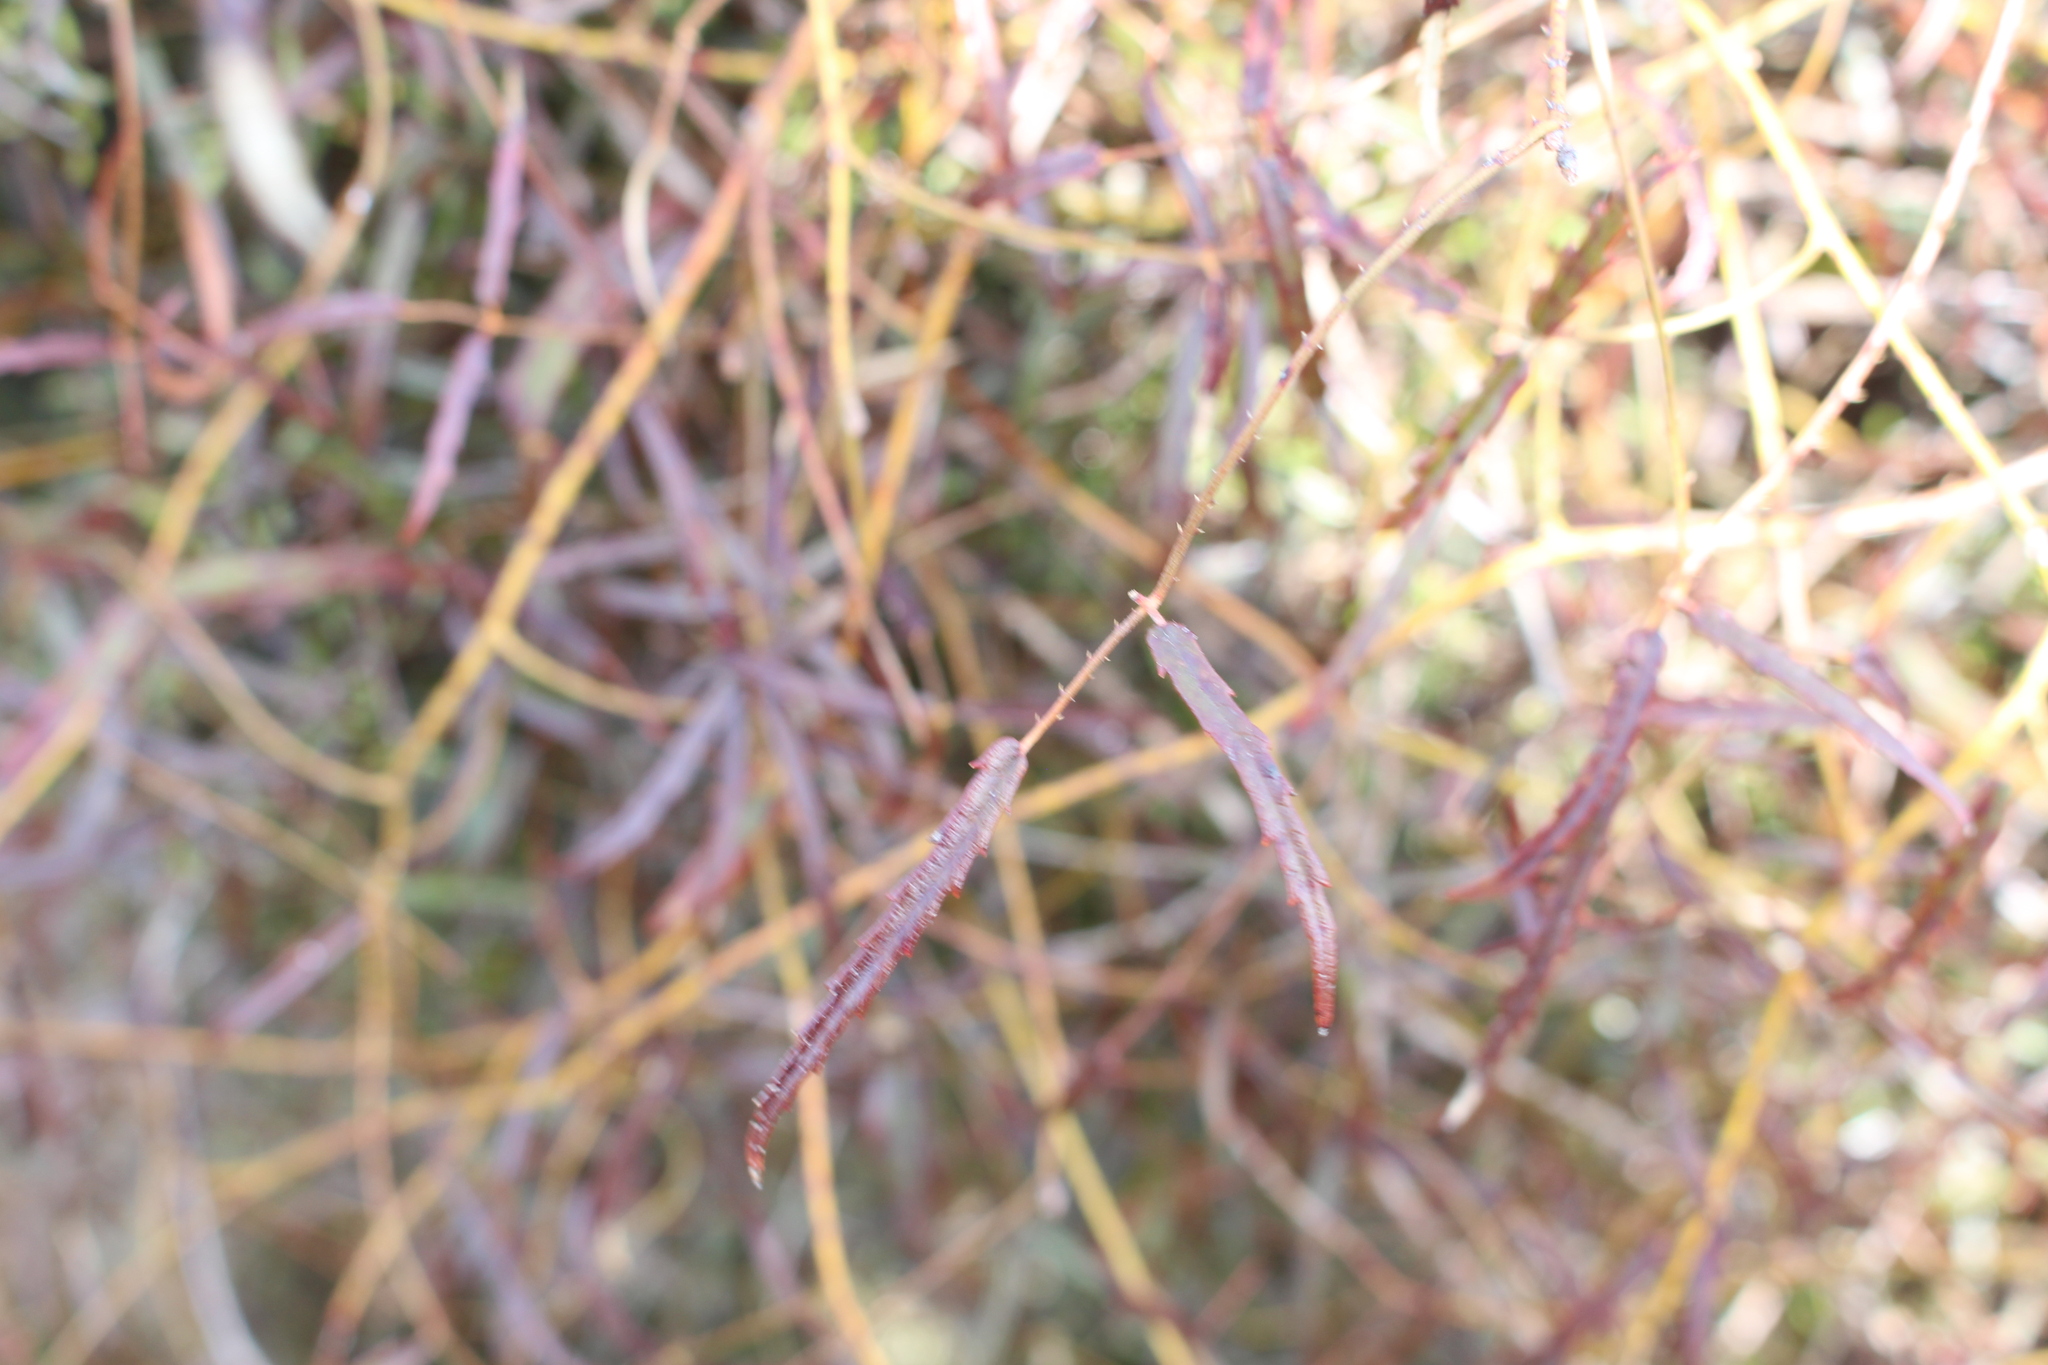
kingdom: Plantae
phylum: Tracheophyta
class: Magnoliopsida
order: Rosales
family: Rosaceae
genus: Rubus
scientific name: Rubus schmidelioides
